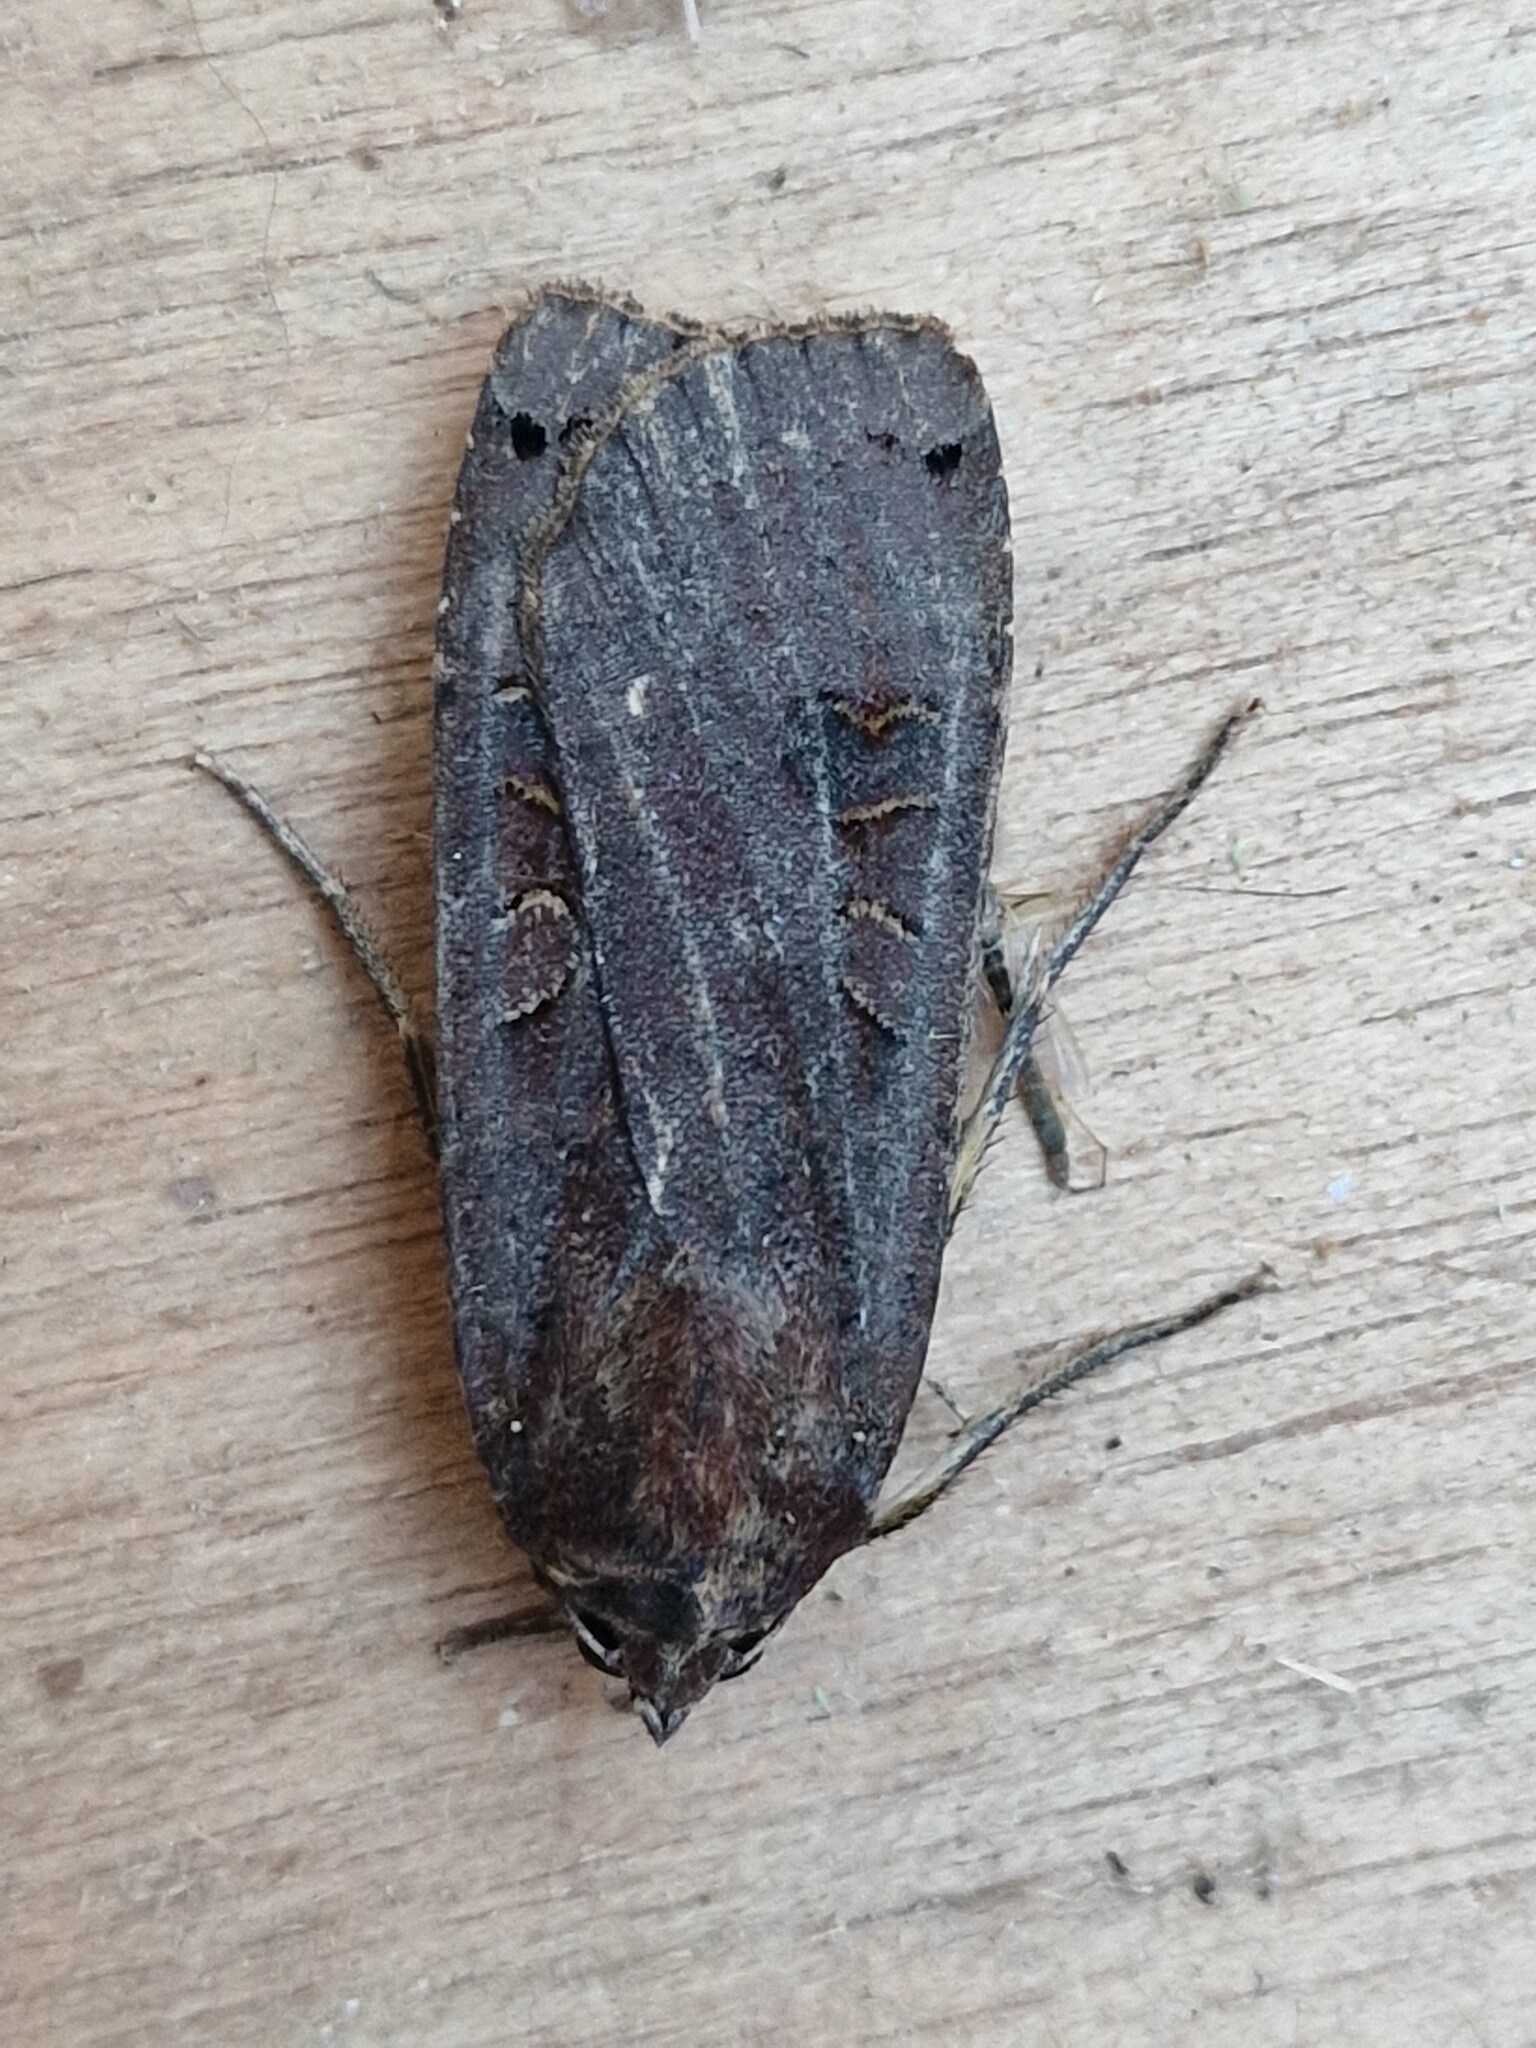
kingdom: Animalia
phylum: Arthropoda
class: Insecta
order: Lepidoptera
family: Noctuidae
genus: Noctua
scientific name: Noctua pronuba
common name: Large yellow underwing
